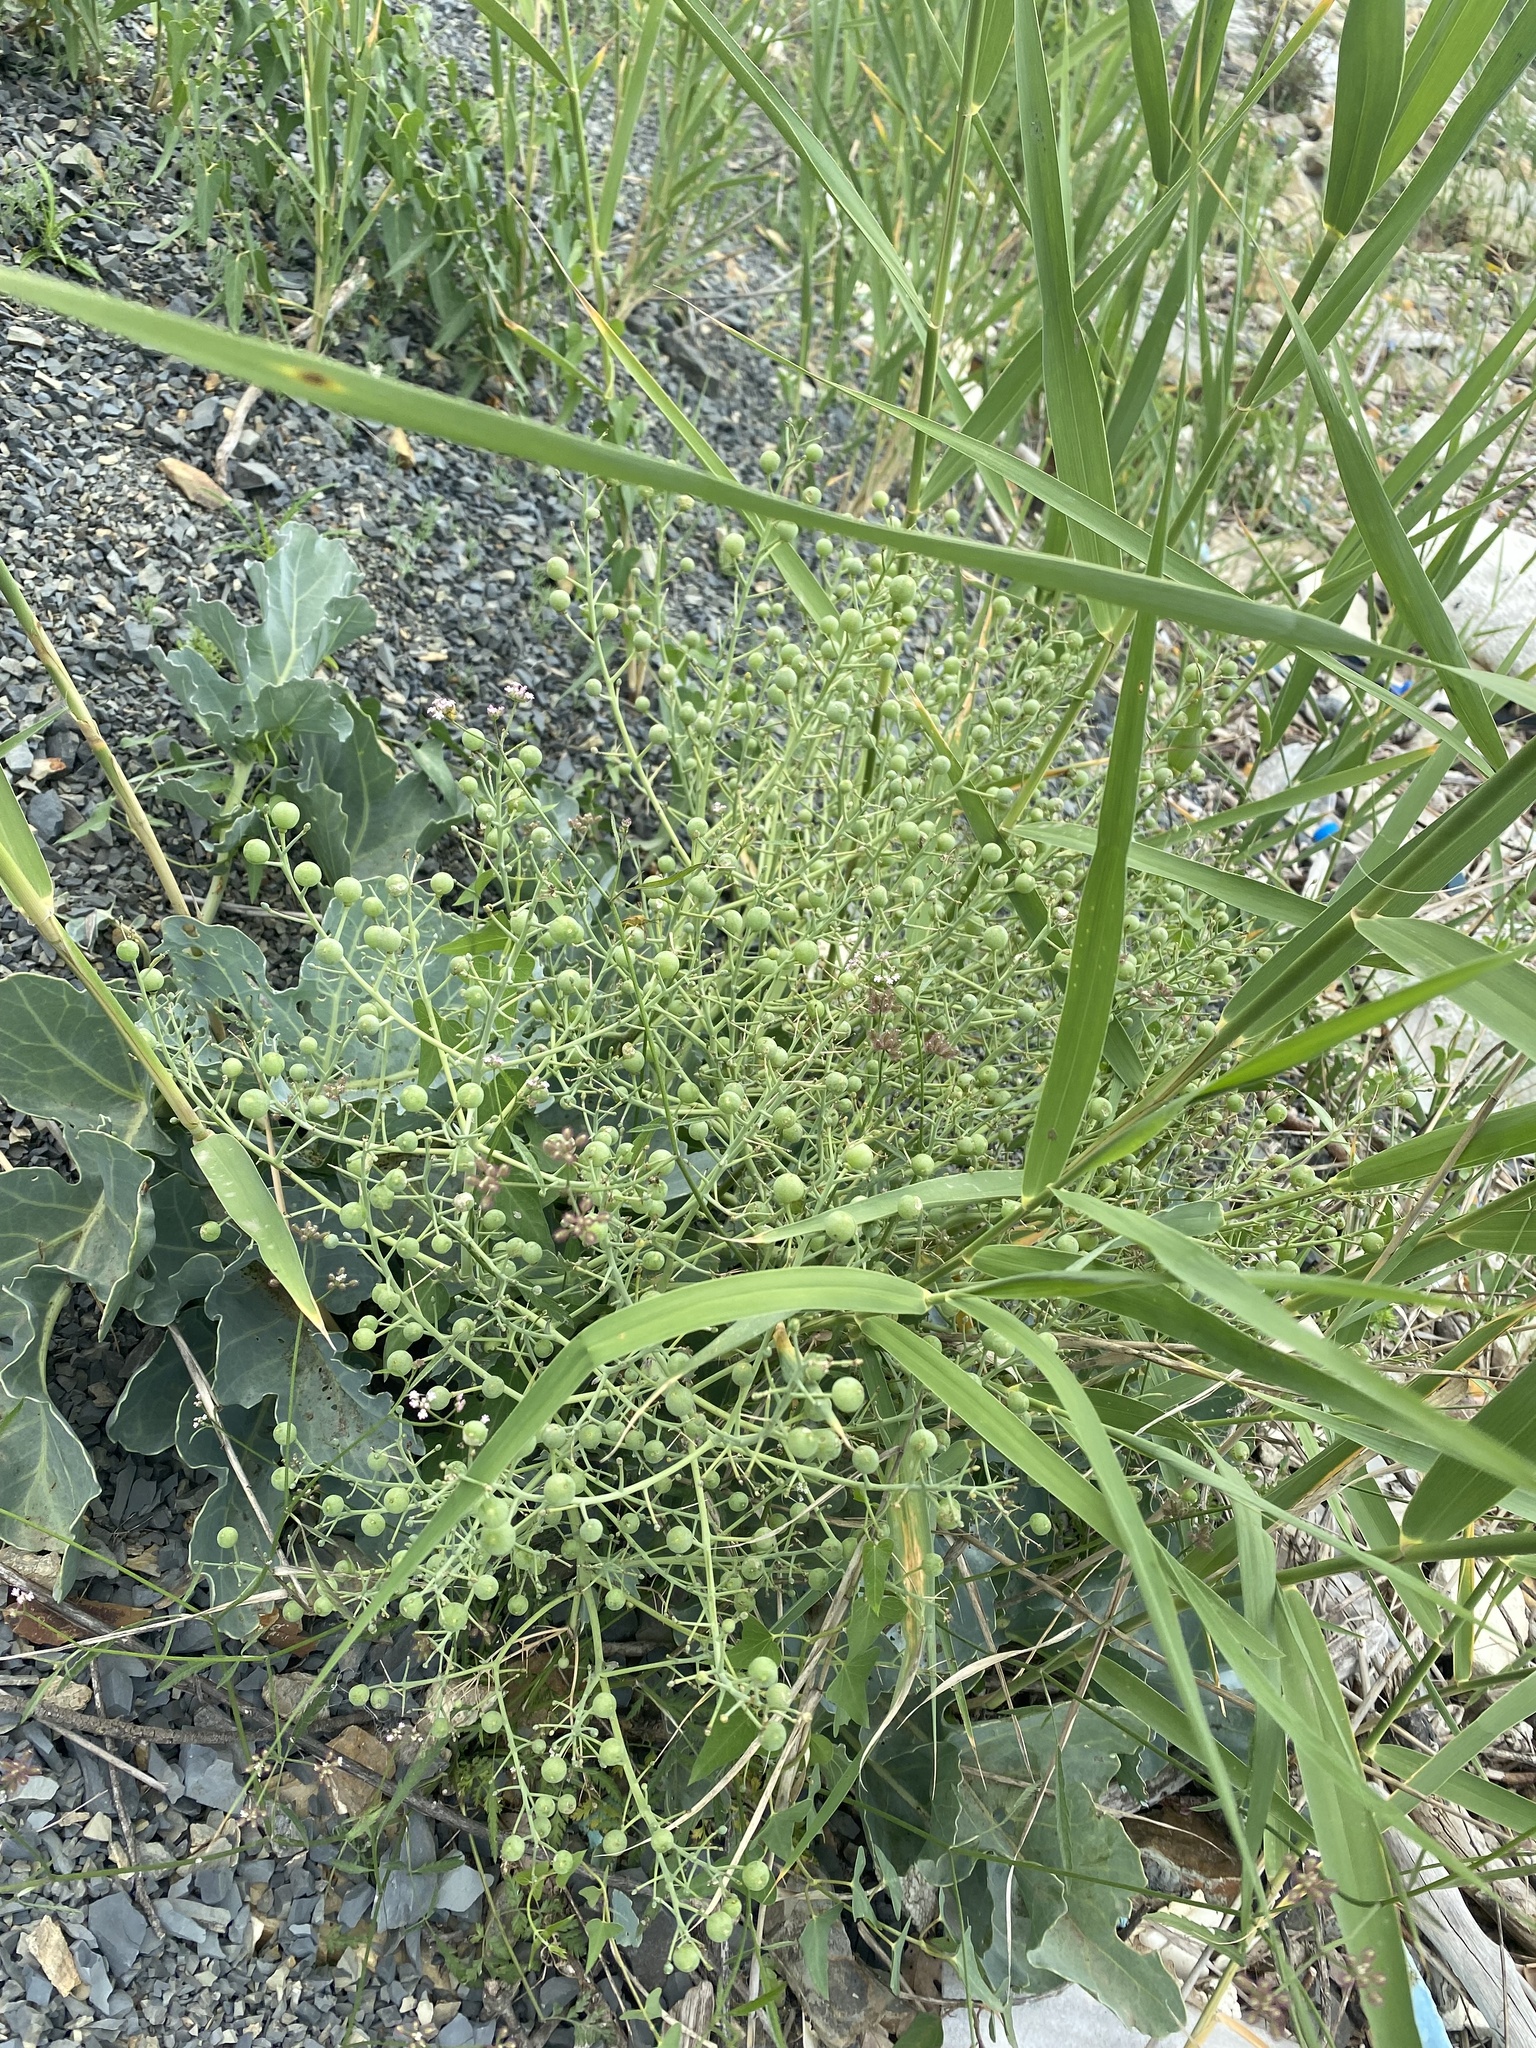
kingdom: Plantae
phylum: Tracheophyta
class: Magnoliopsida
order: Brassicales
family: Brassicaceae
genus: Crambe
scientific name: Crambe maritima
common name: Sea-kale
